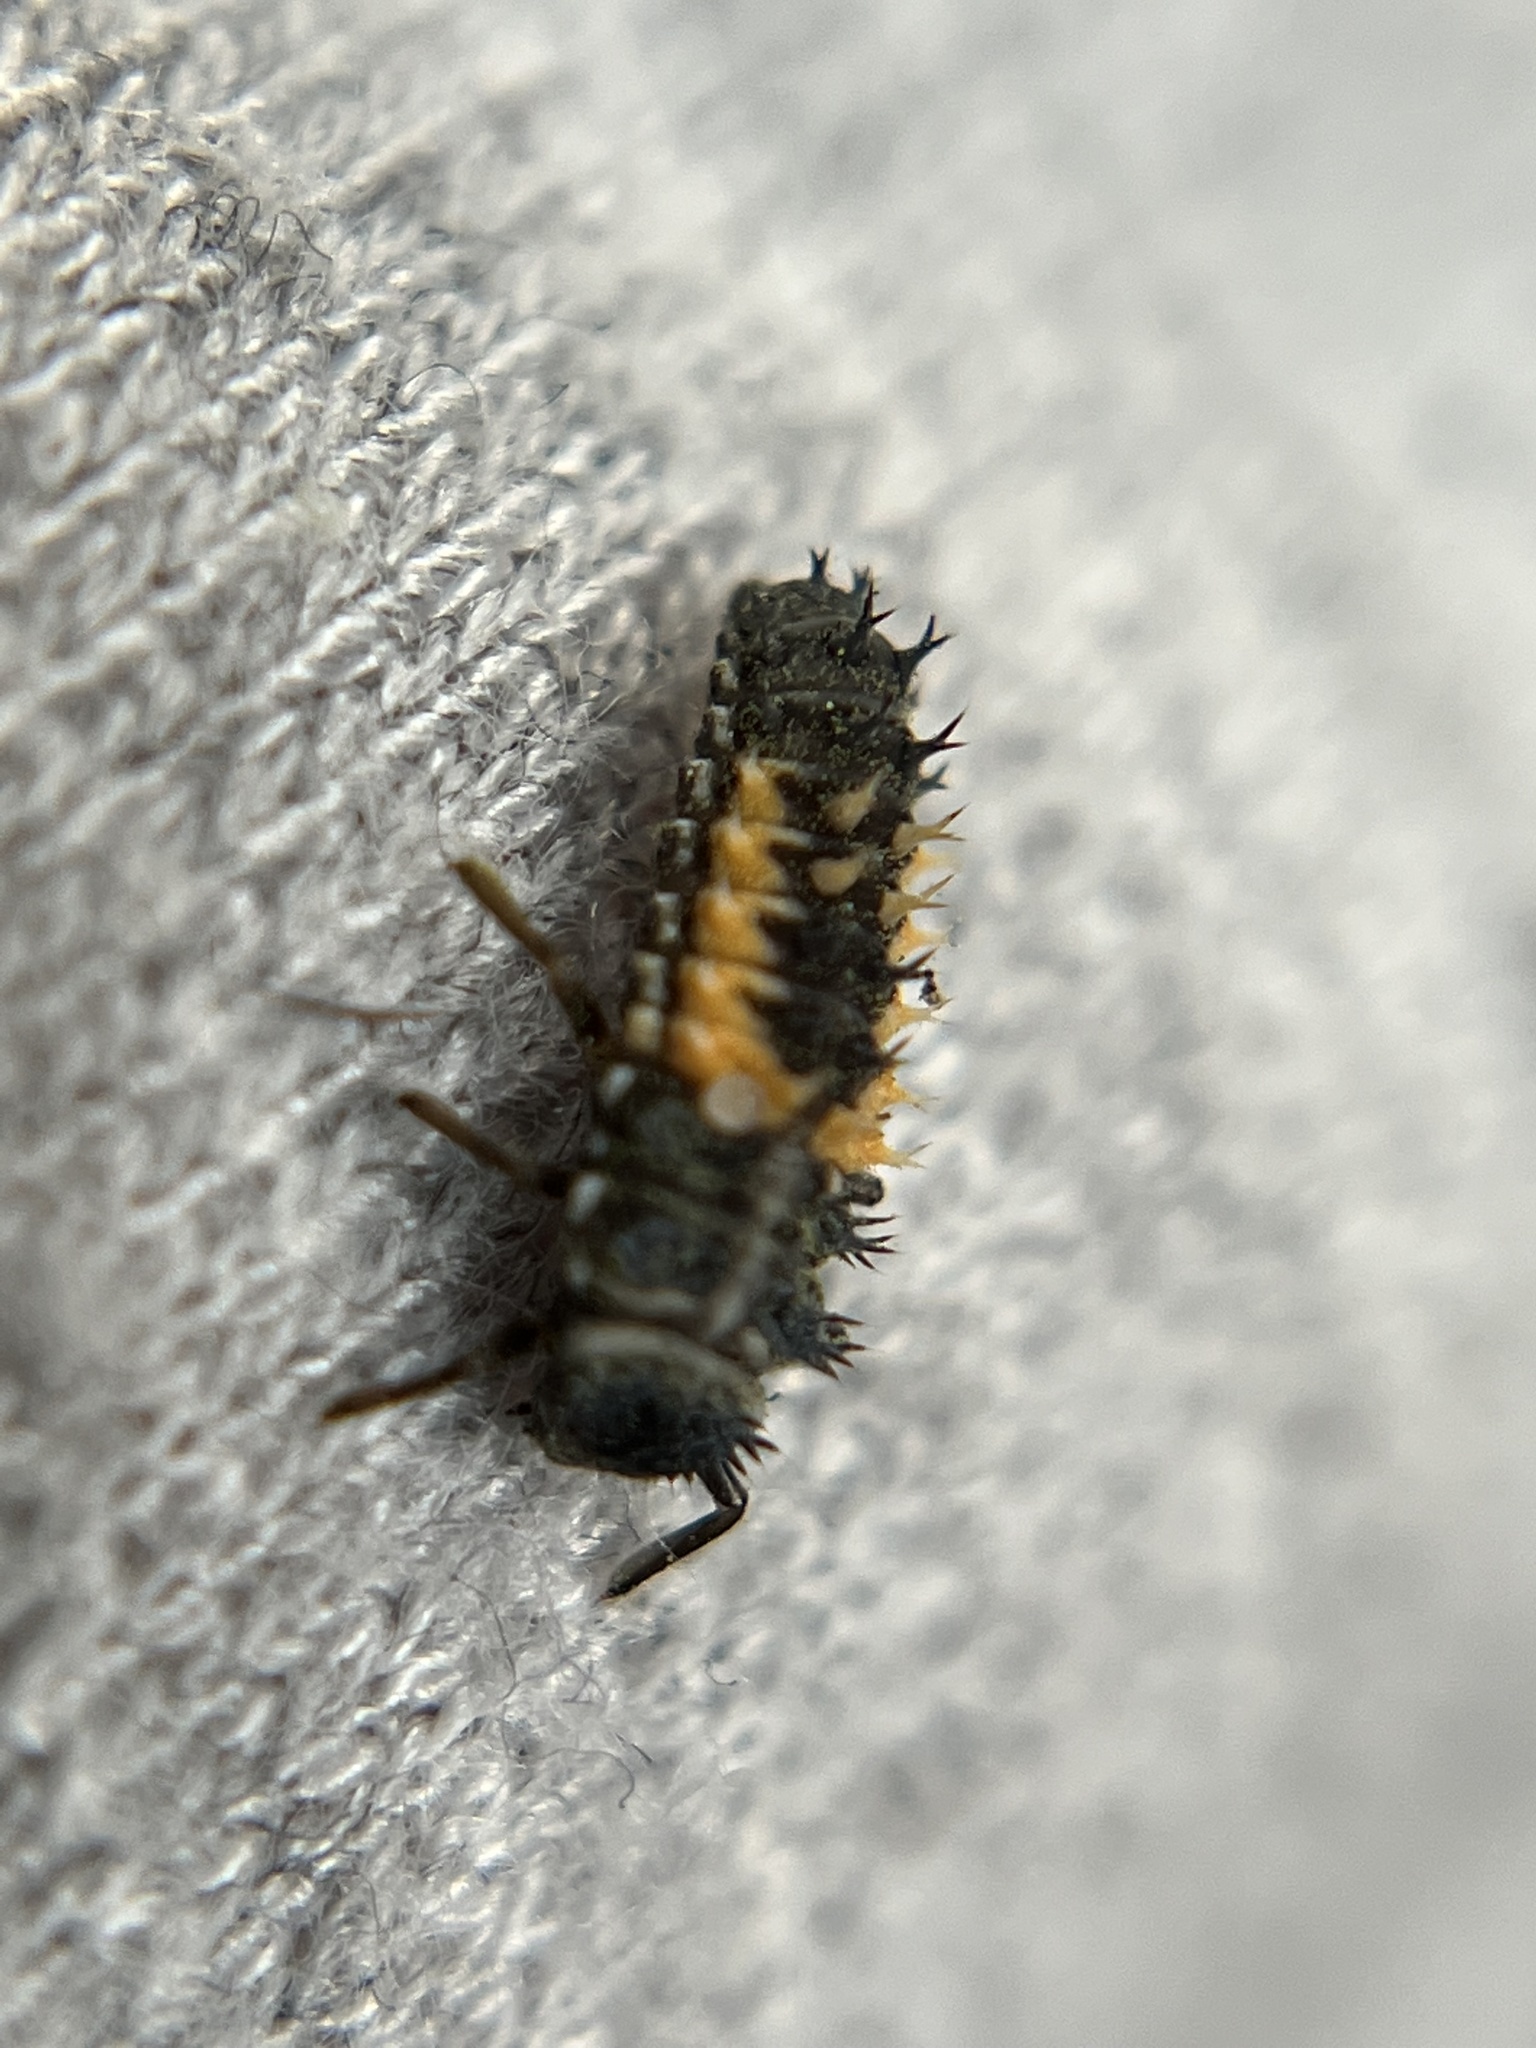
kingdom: Animalia
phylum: Arthropoda
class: Insecta
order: Coleoptera
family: Coccinellidae
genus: Harmonia
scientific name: Harmonia axyridis
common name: Harlequin ladybird
